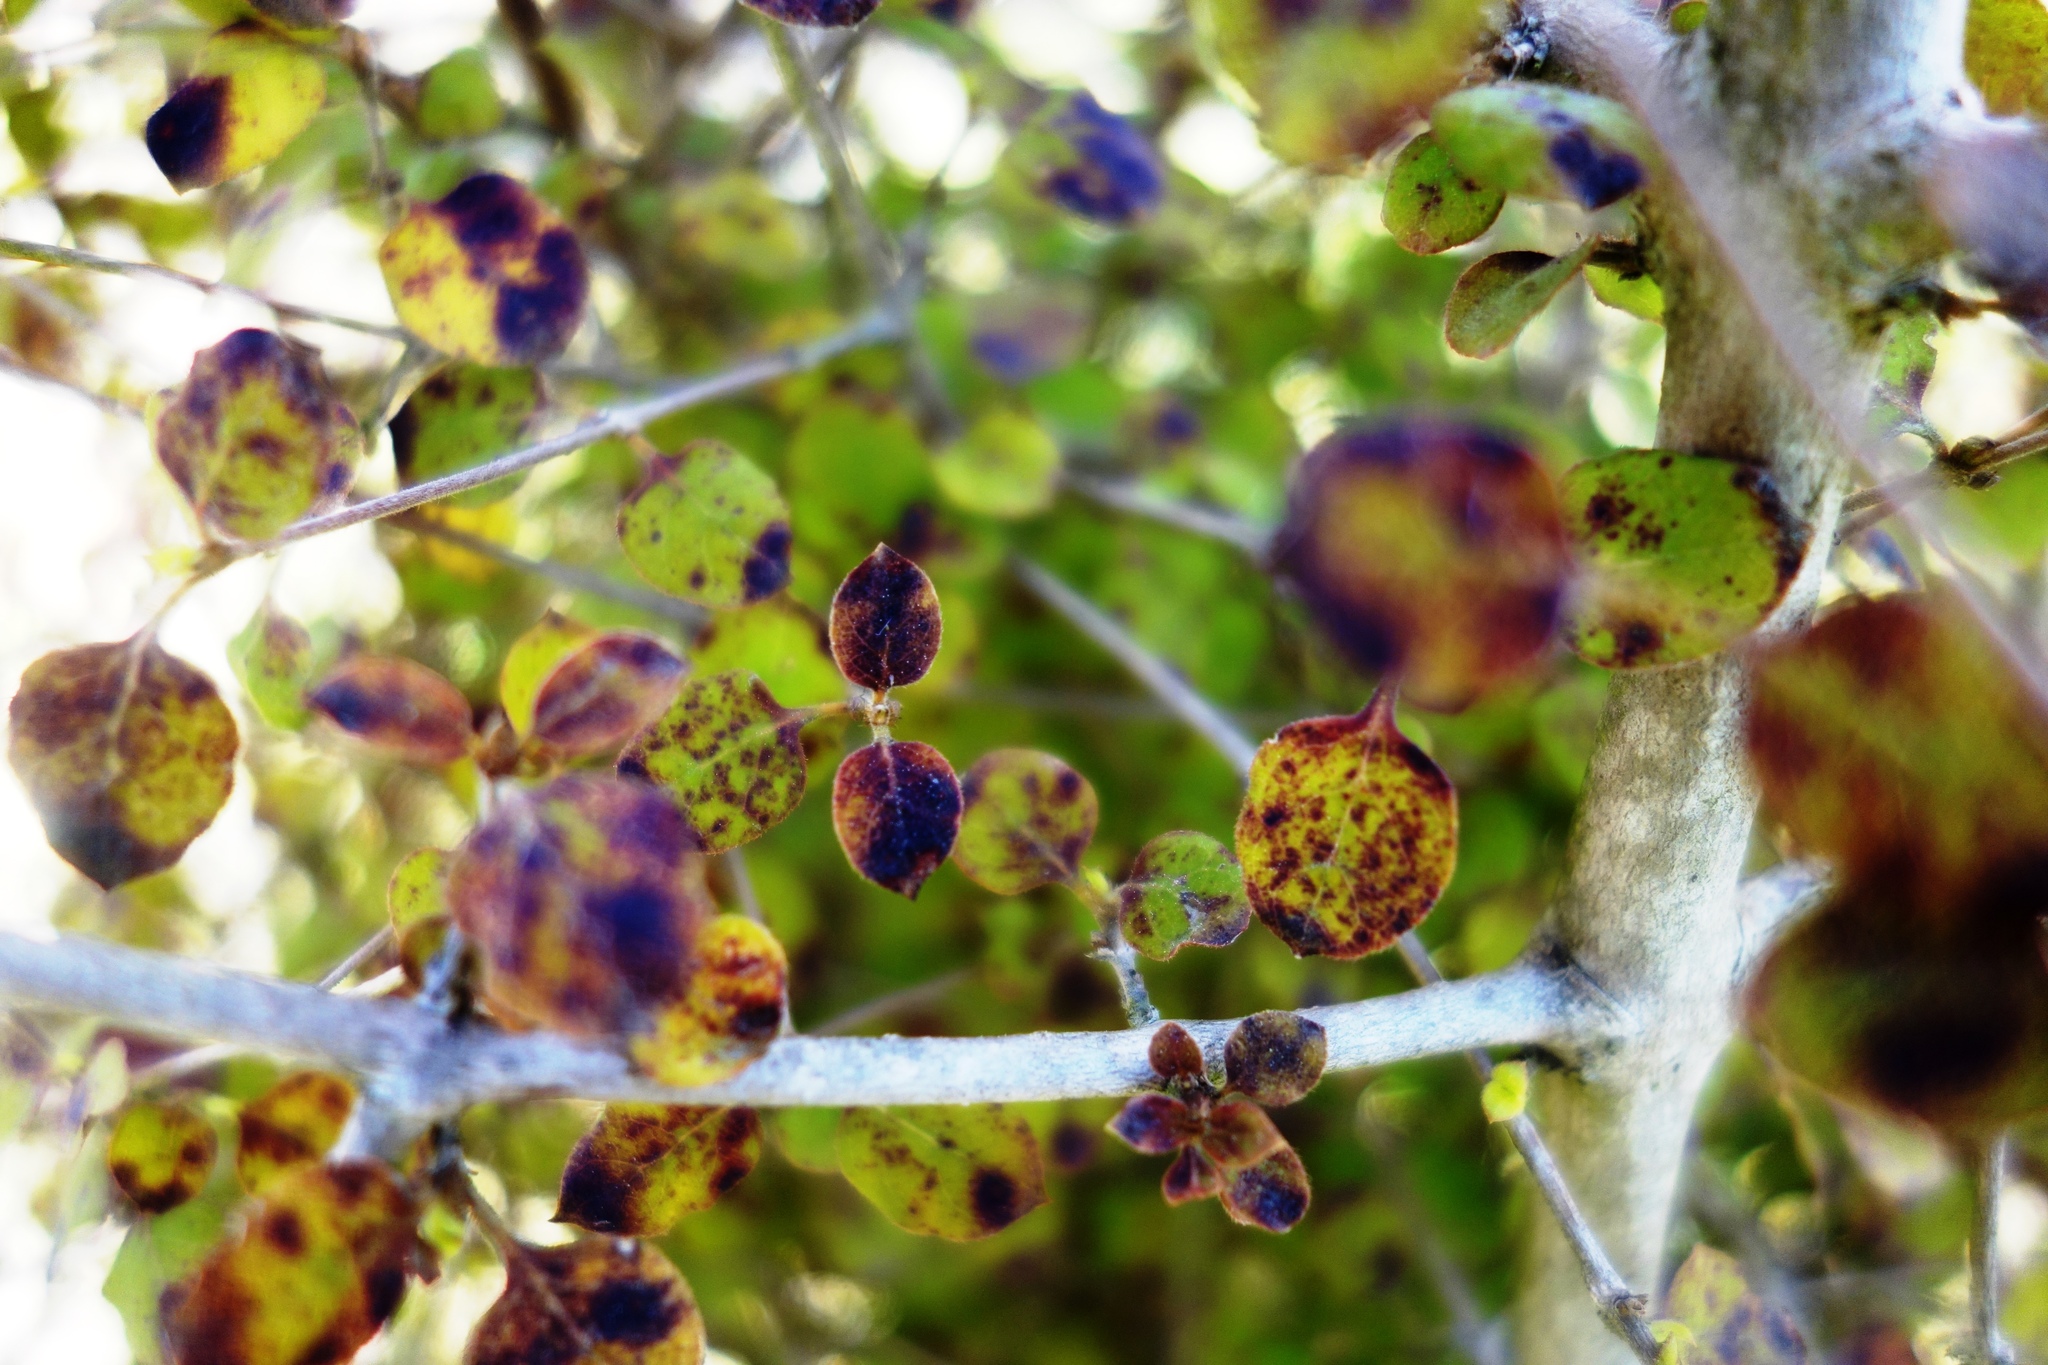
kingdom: Plantae
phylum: Tracheophyta
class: Magnoliopsida
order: Gentianales
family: Rubiaceae
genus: Coprosma
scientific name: Coprosma rotundifolia
